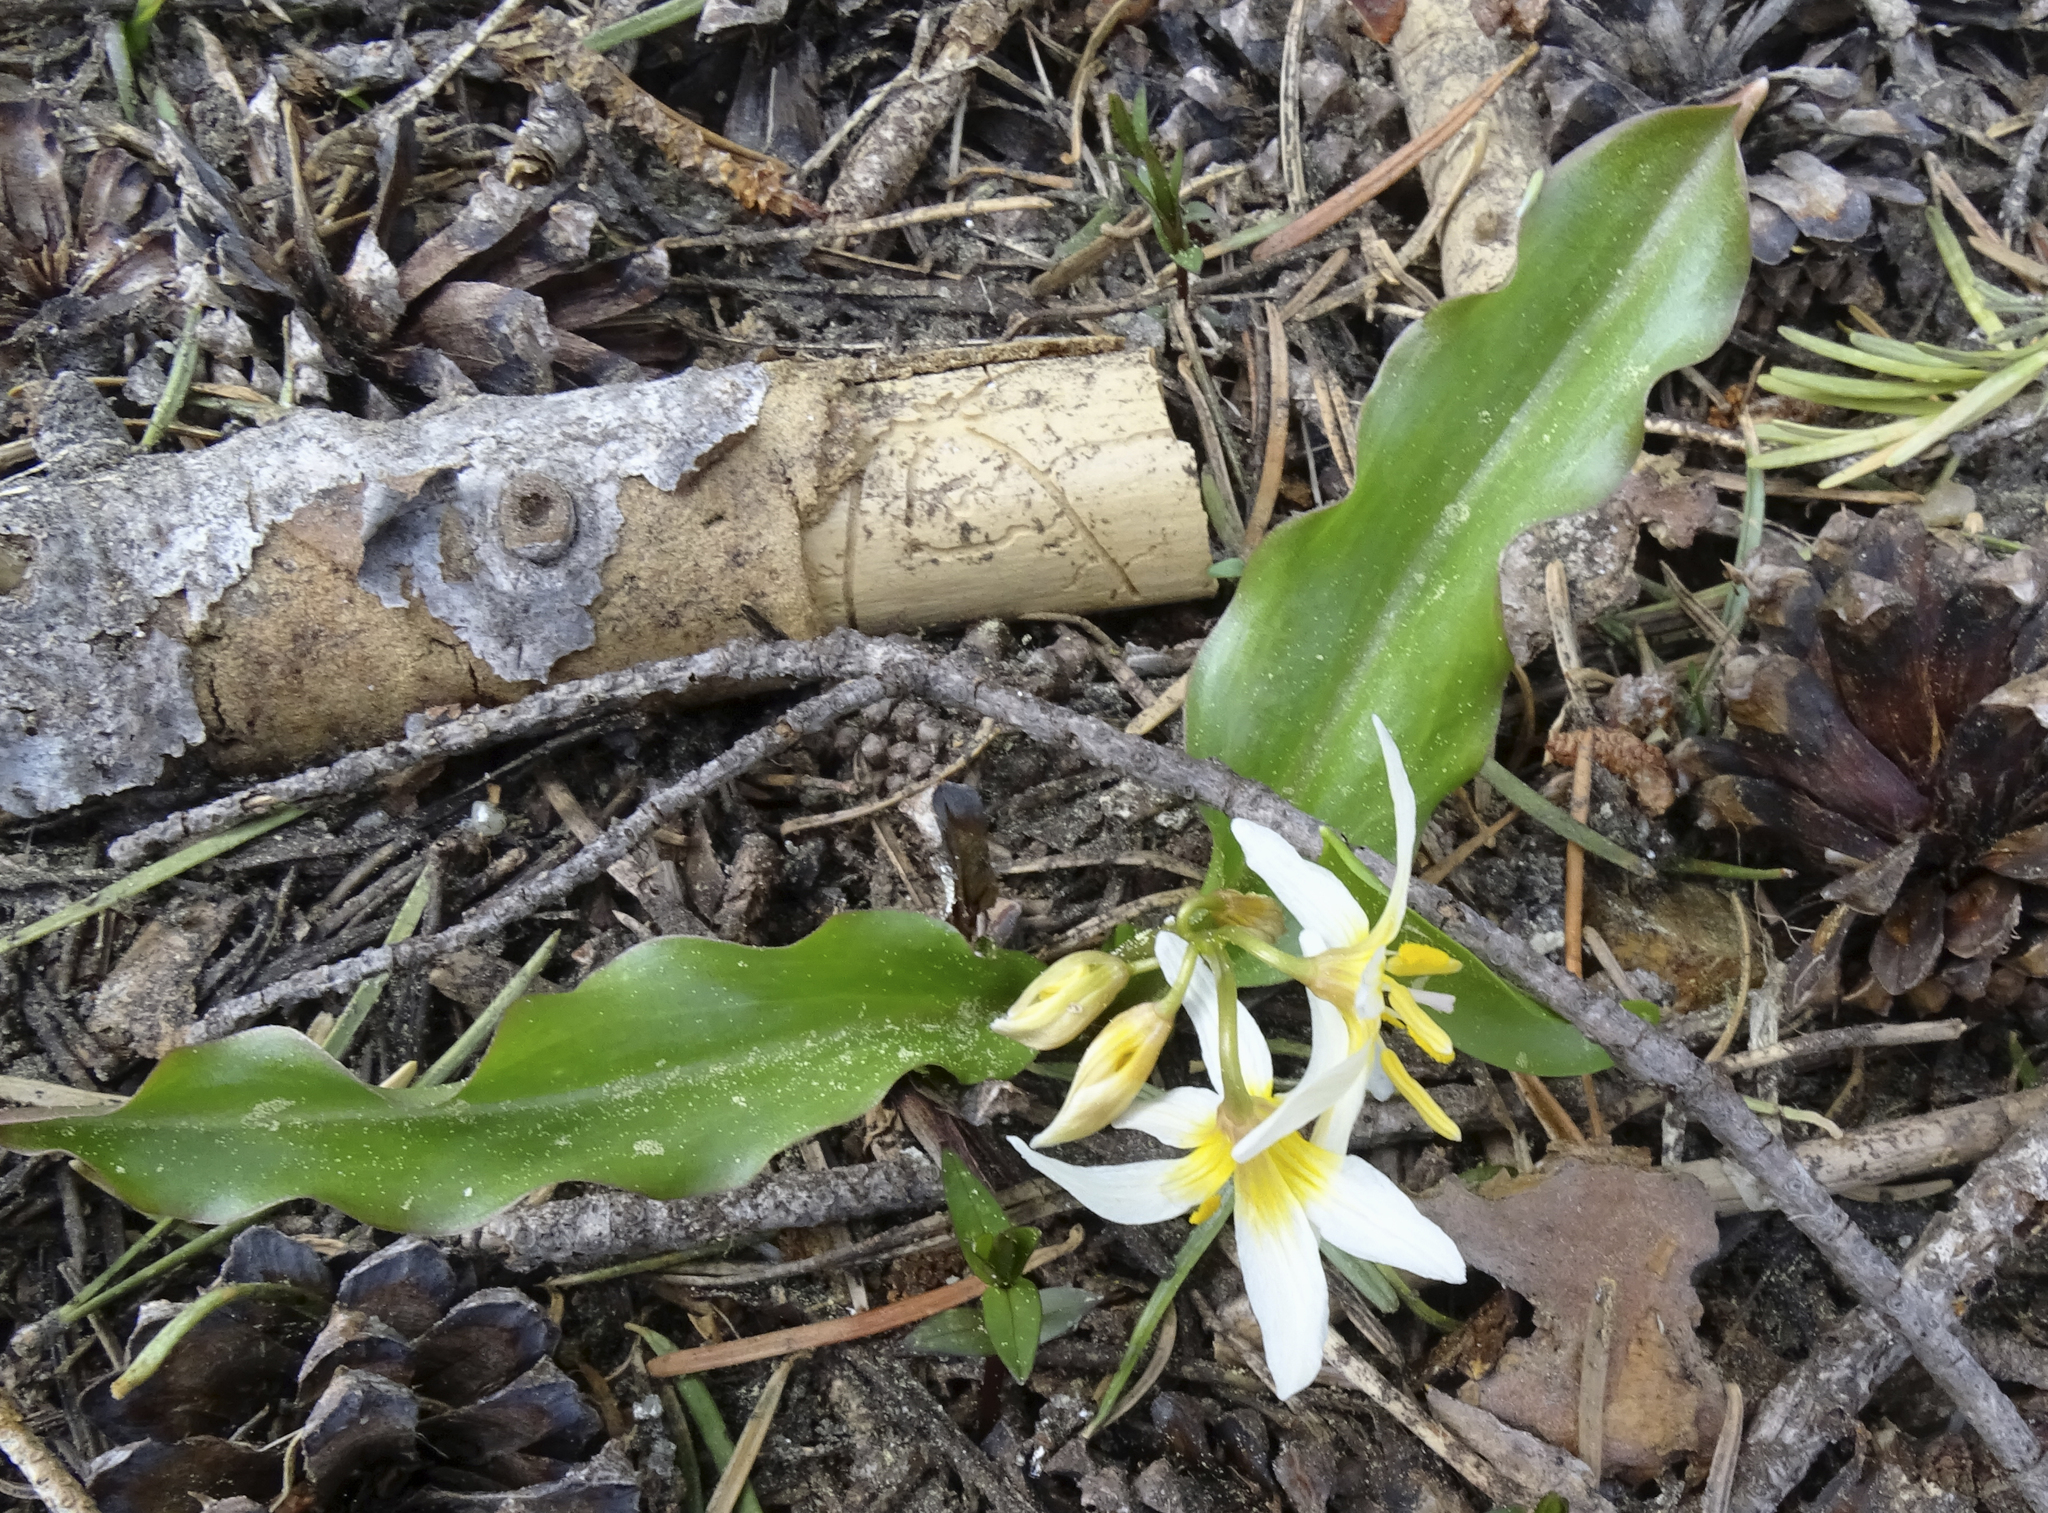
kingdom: Plantae
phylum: Tracheophyta
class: Liliopsida
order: Liliales
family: Liliaceae
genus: Erythronium
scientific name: Erythronium purpurascens
